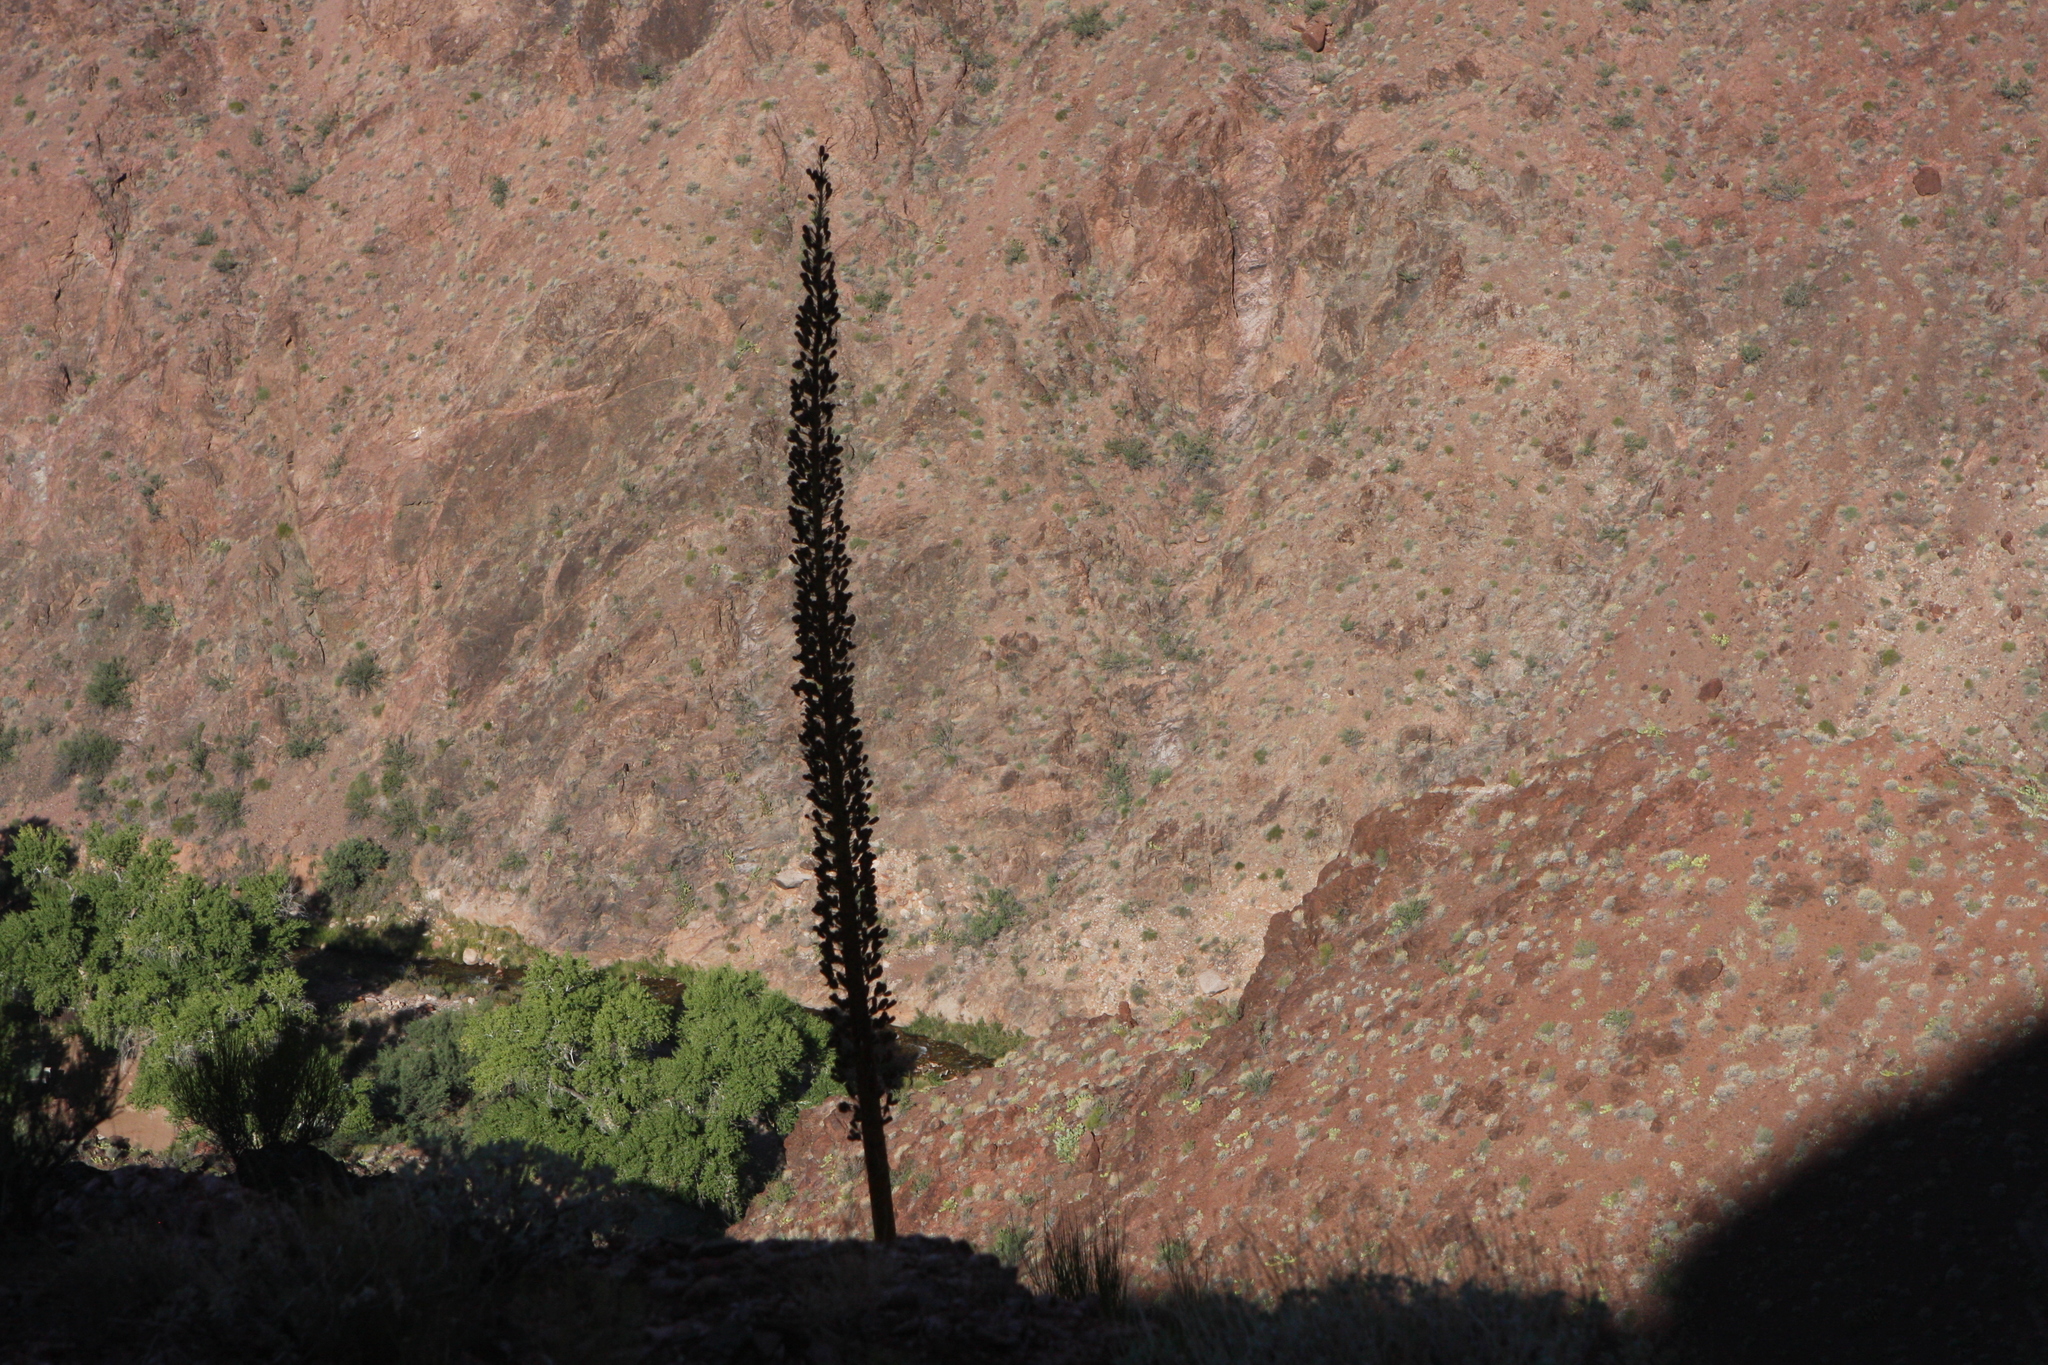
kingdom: Plantae
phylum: Tracheophyta
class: Liliopsida
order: Asparagales
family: Asparagaceae
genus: Agave
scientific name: Agave utahensis
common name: Utah agave
